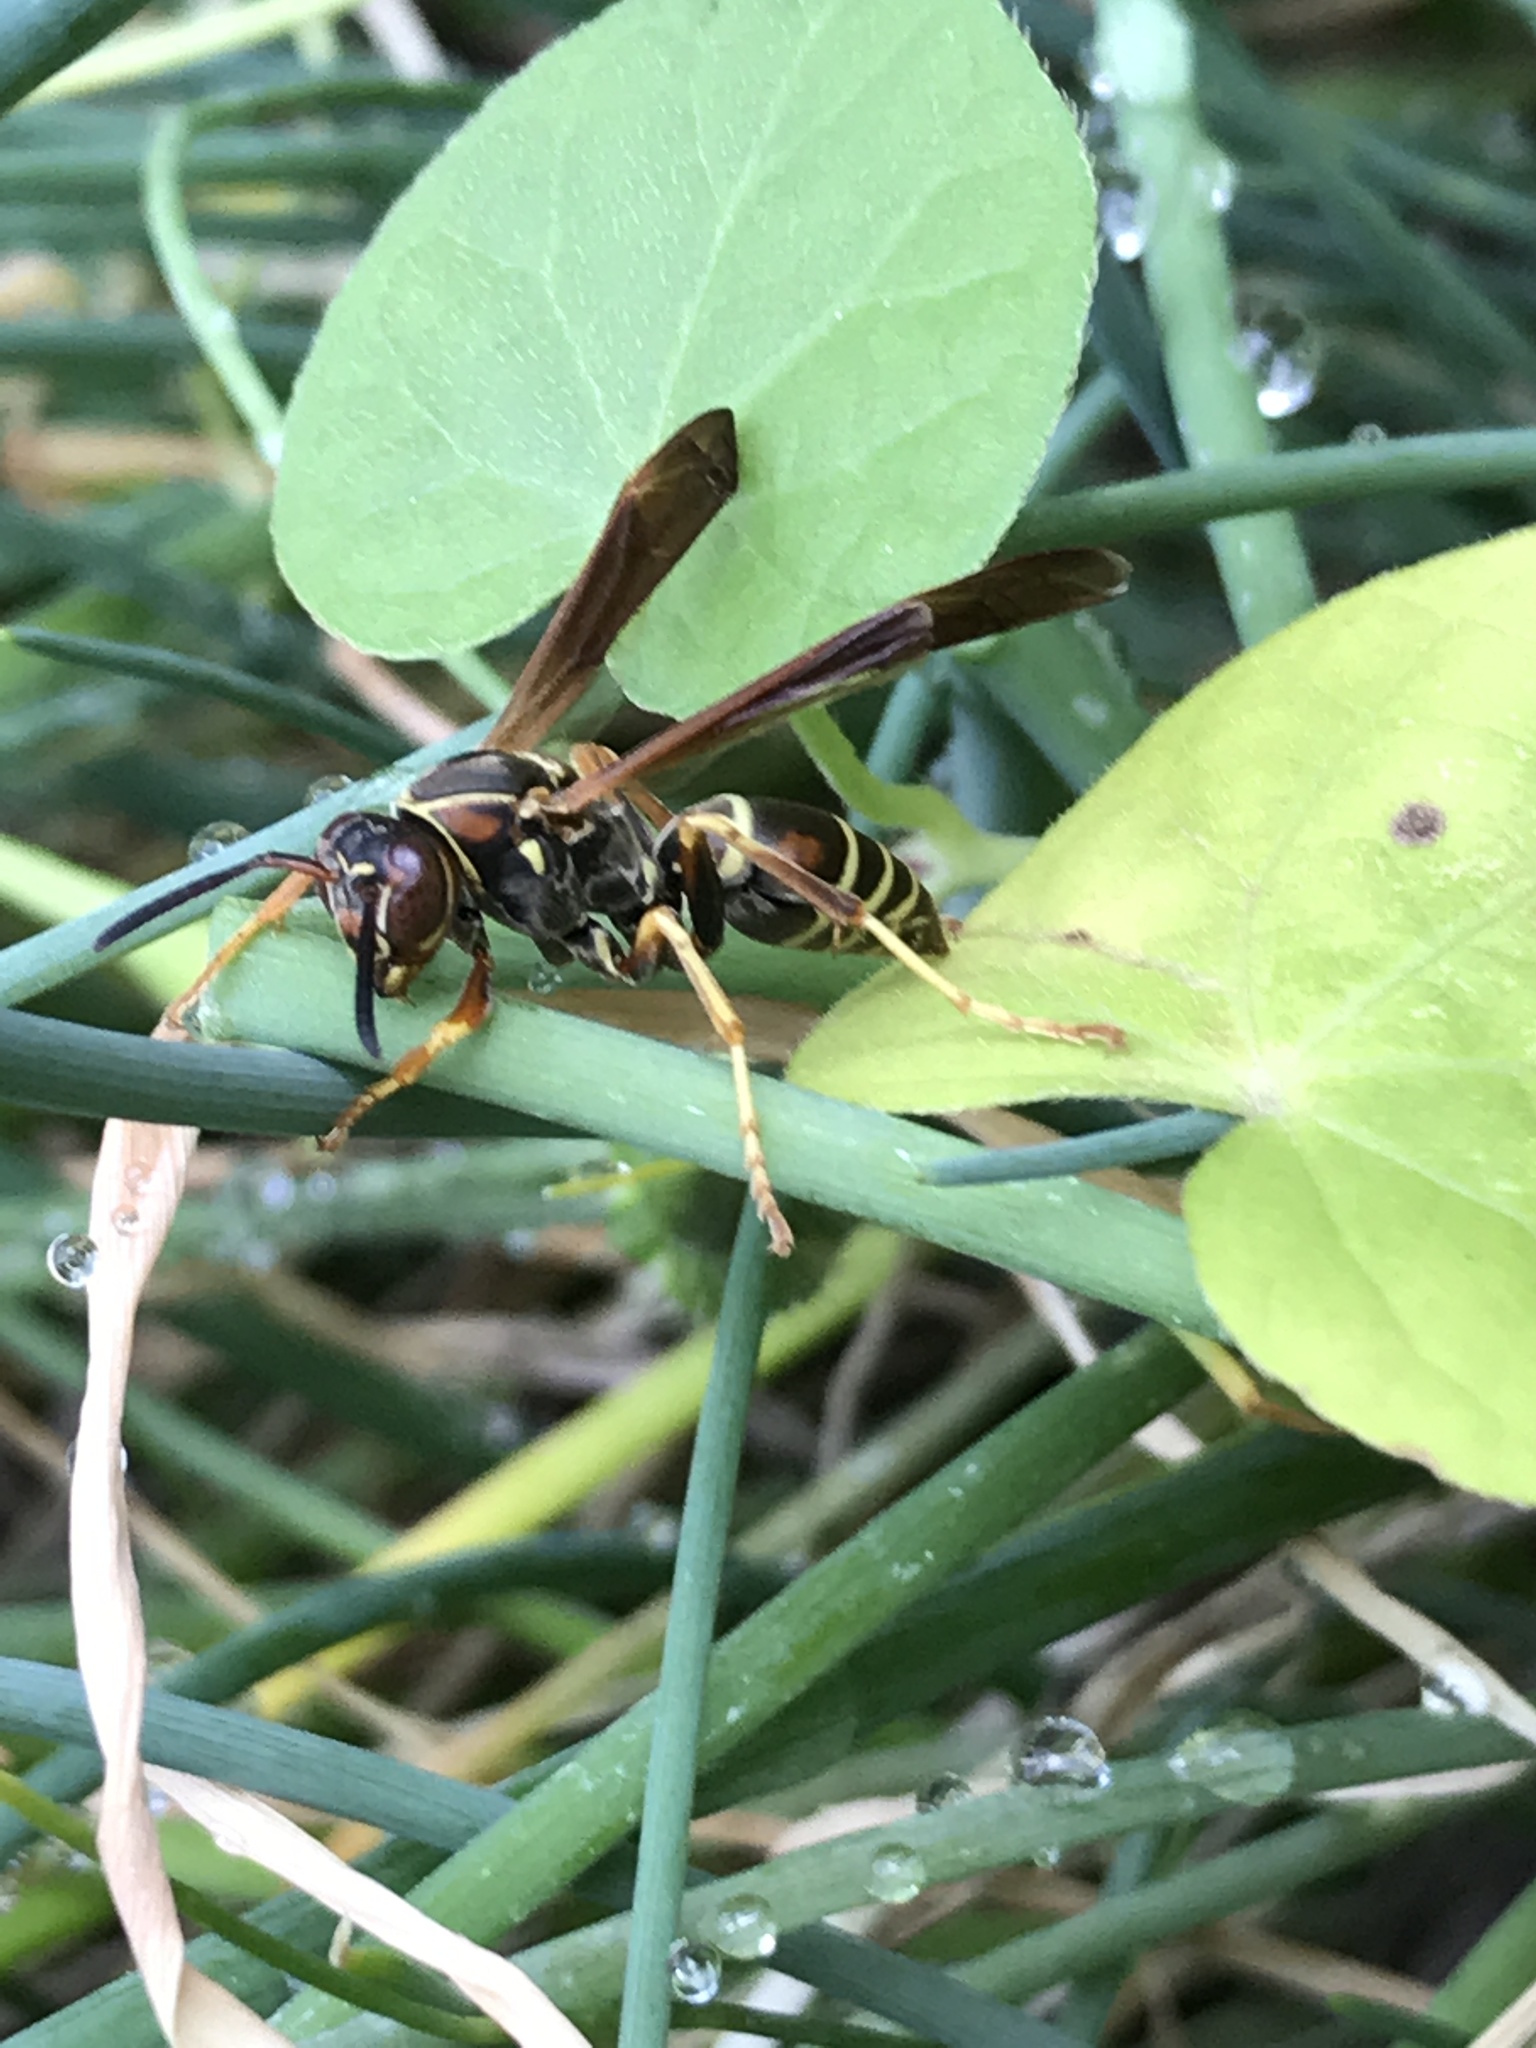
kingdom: Animalia
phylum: Arthropoda
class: Insecta
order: Hymenoptera
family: Eumenidae
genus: Polistes
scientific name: Polistes fuscatus
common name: Dark paper wasp
